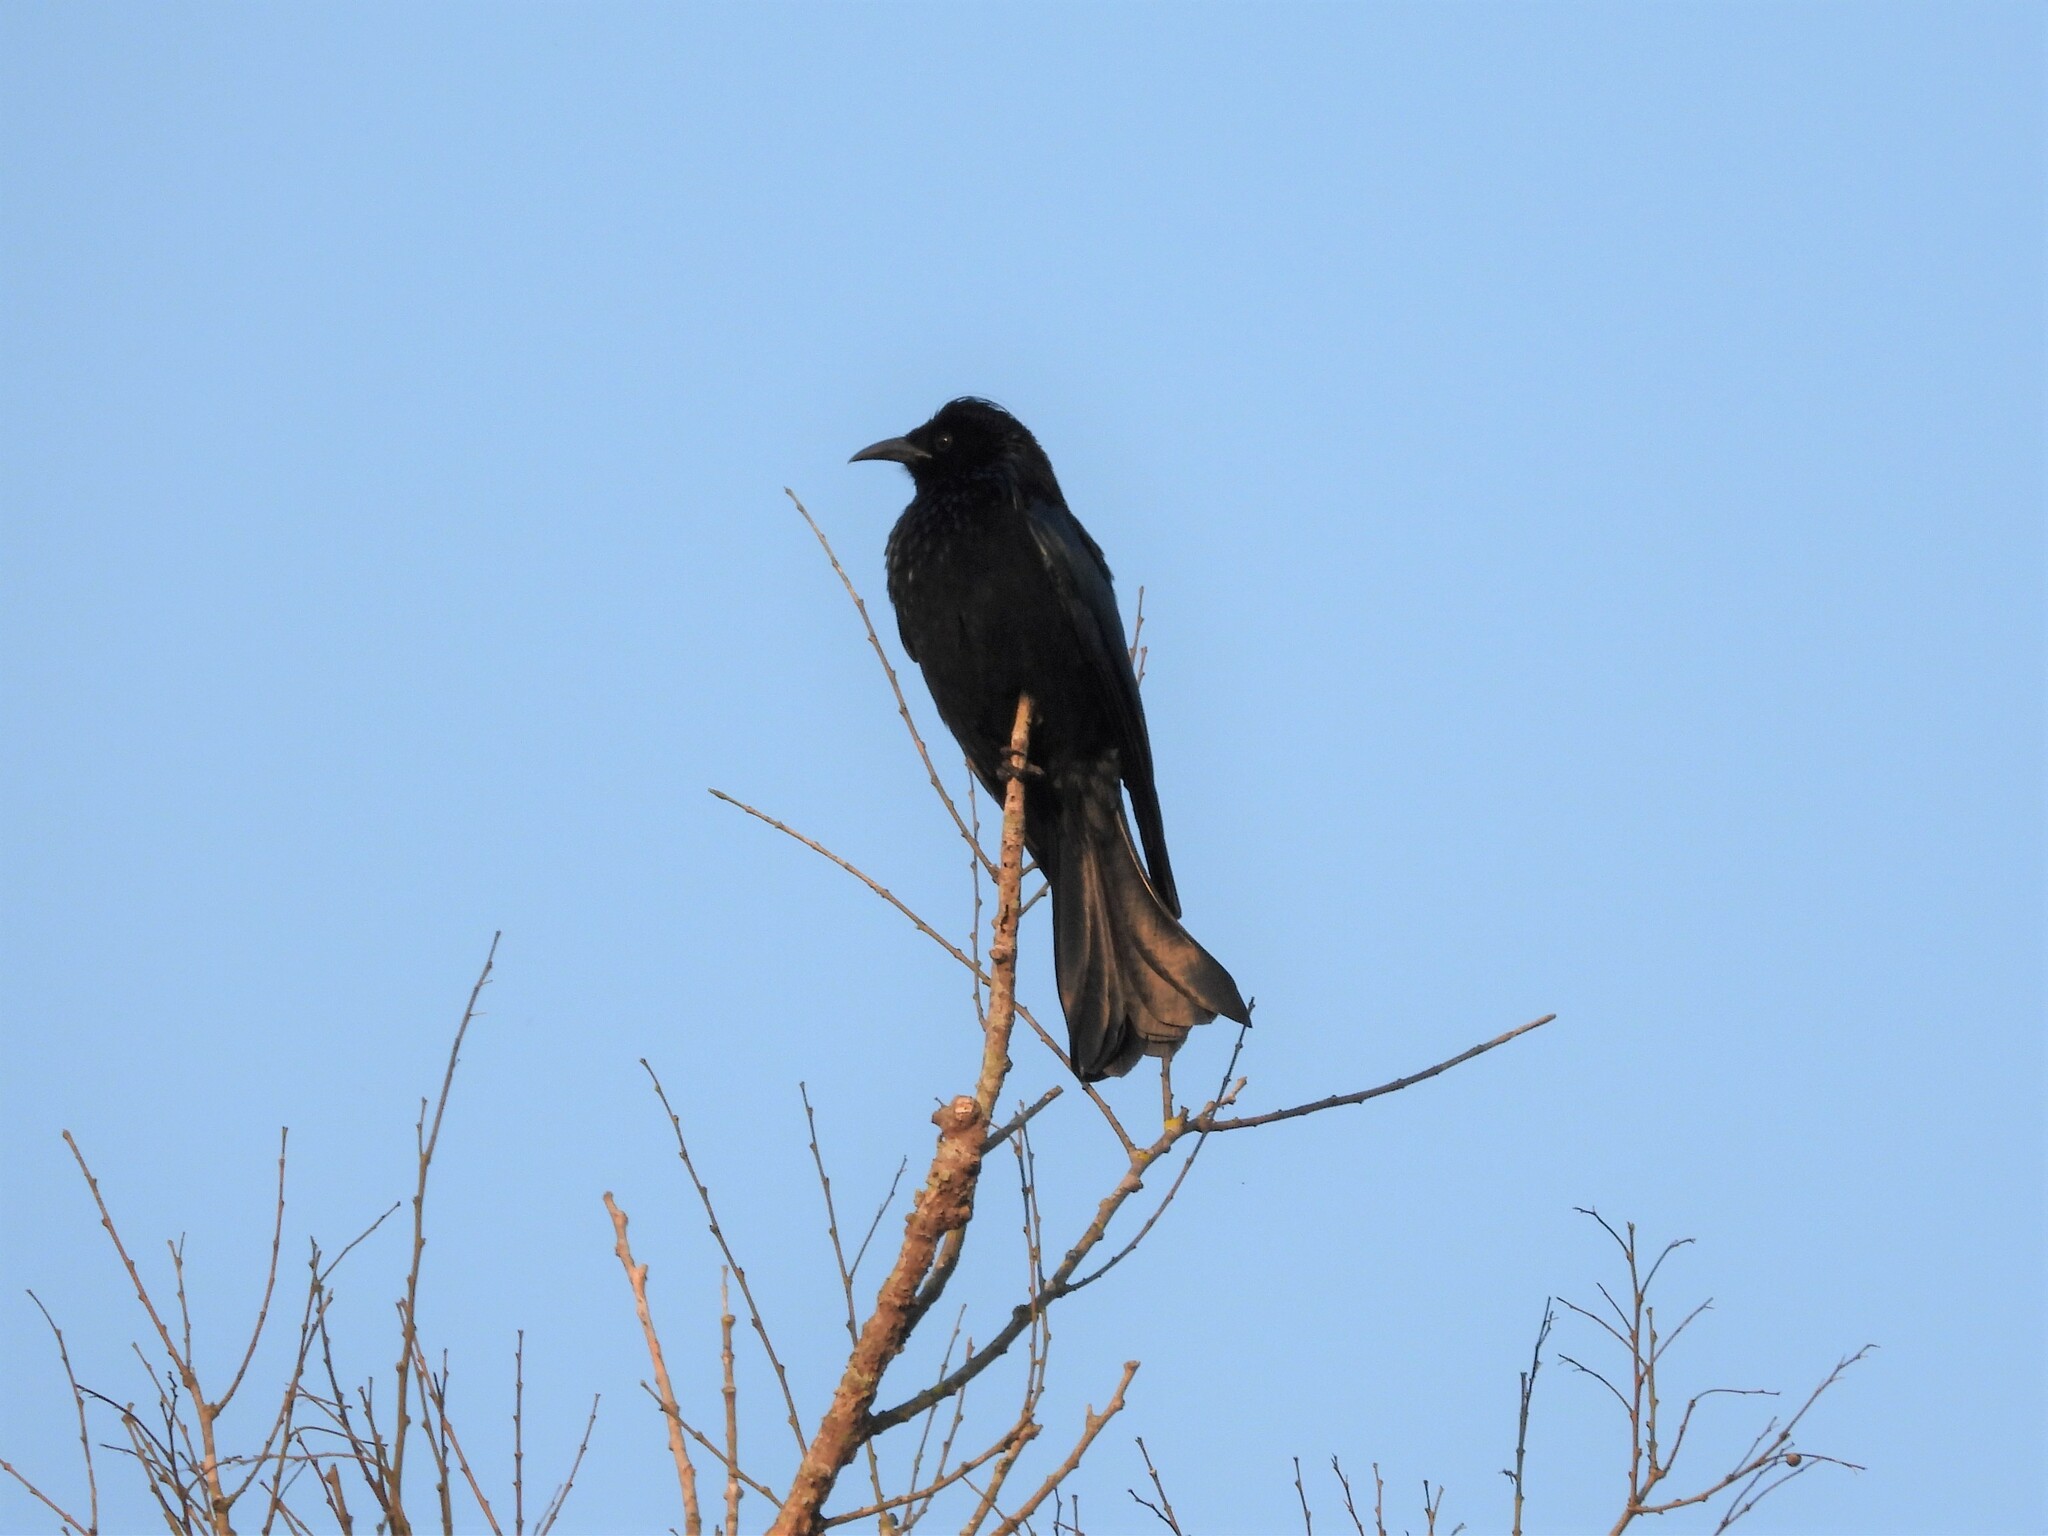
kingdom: Animalia
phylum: Chordata
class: Aves
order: Passeriformes
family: Dicruridae
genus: Dicrurus
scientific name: Dicrurus hottentottus
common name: Hair-crested drongo
